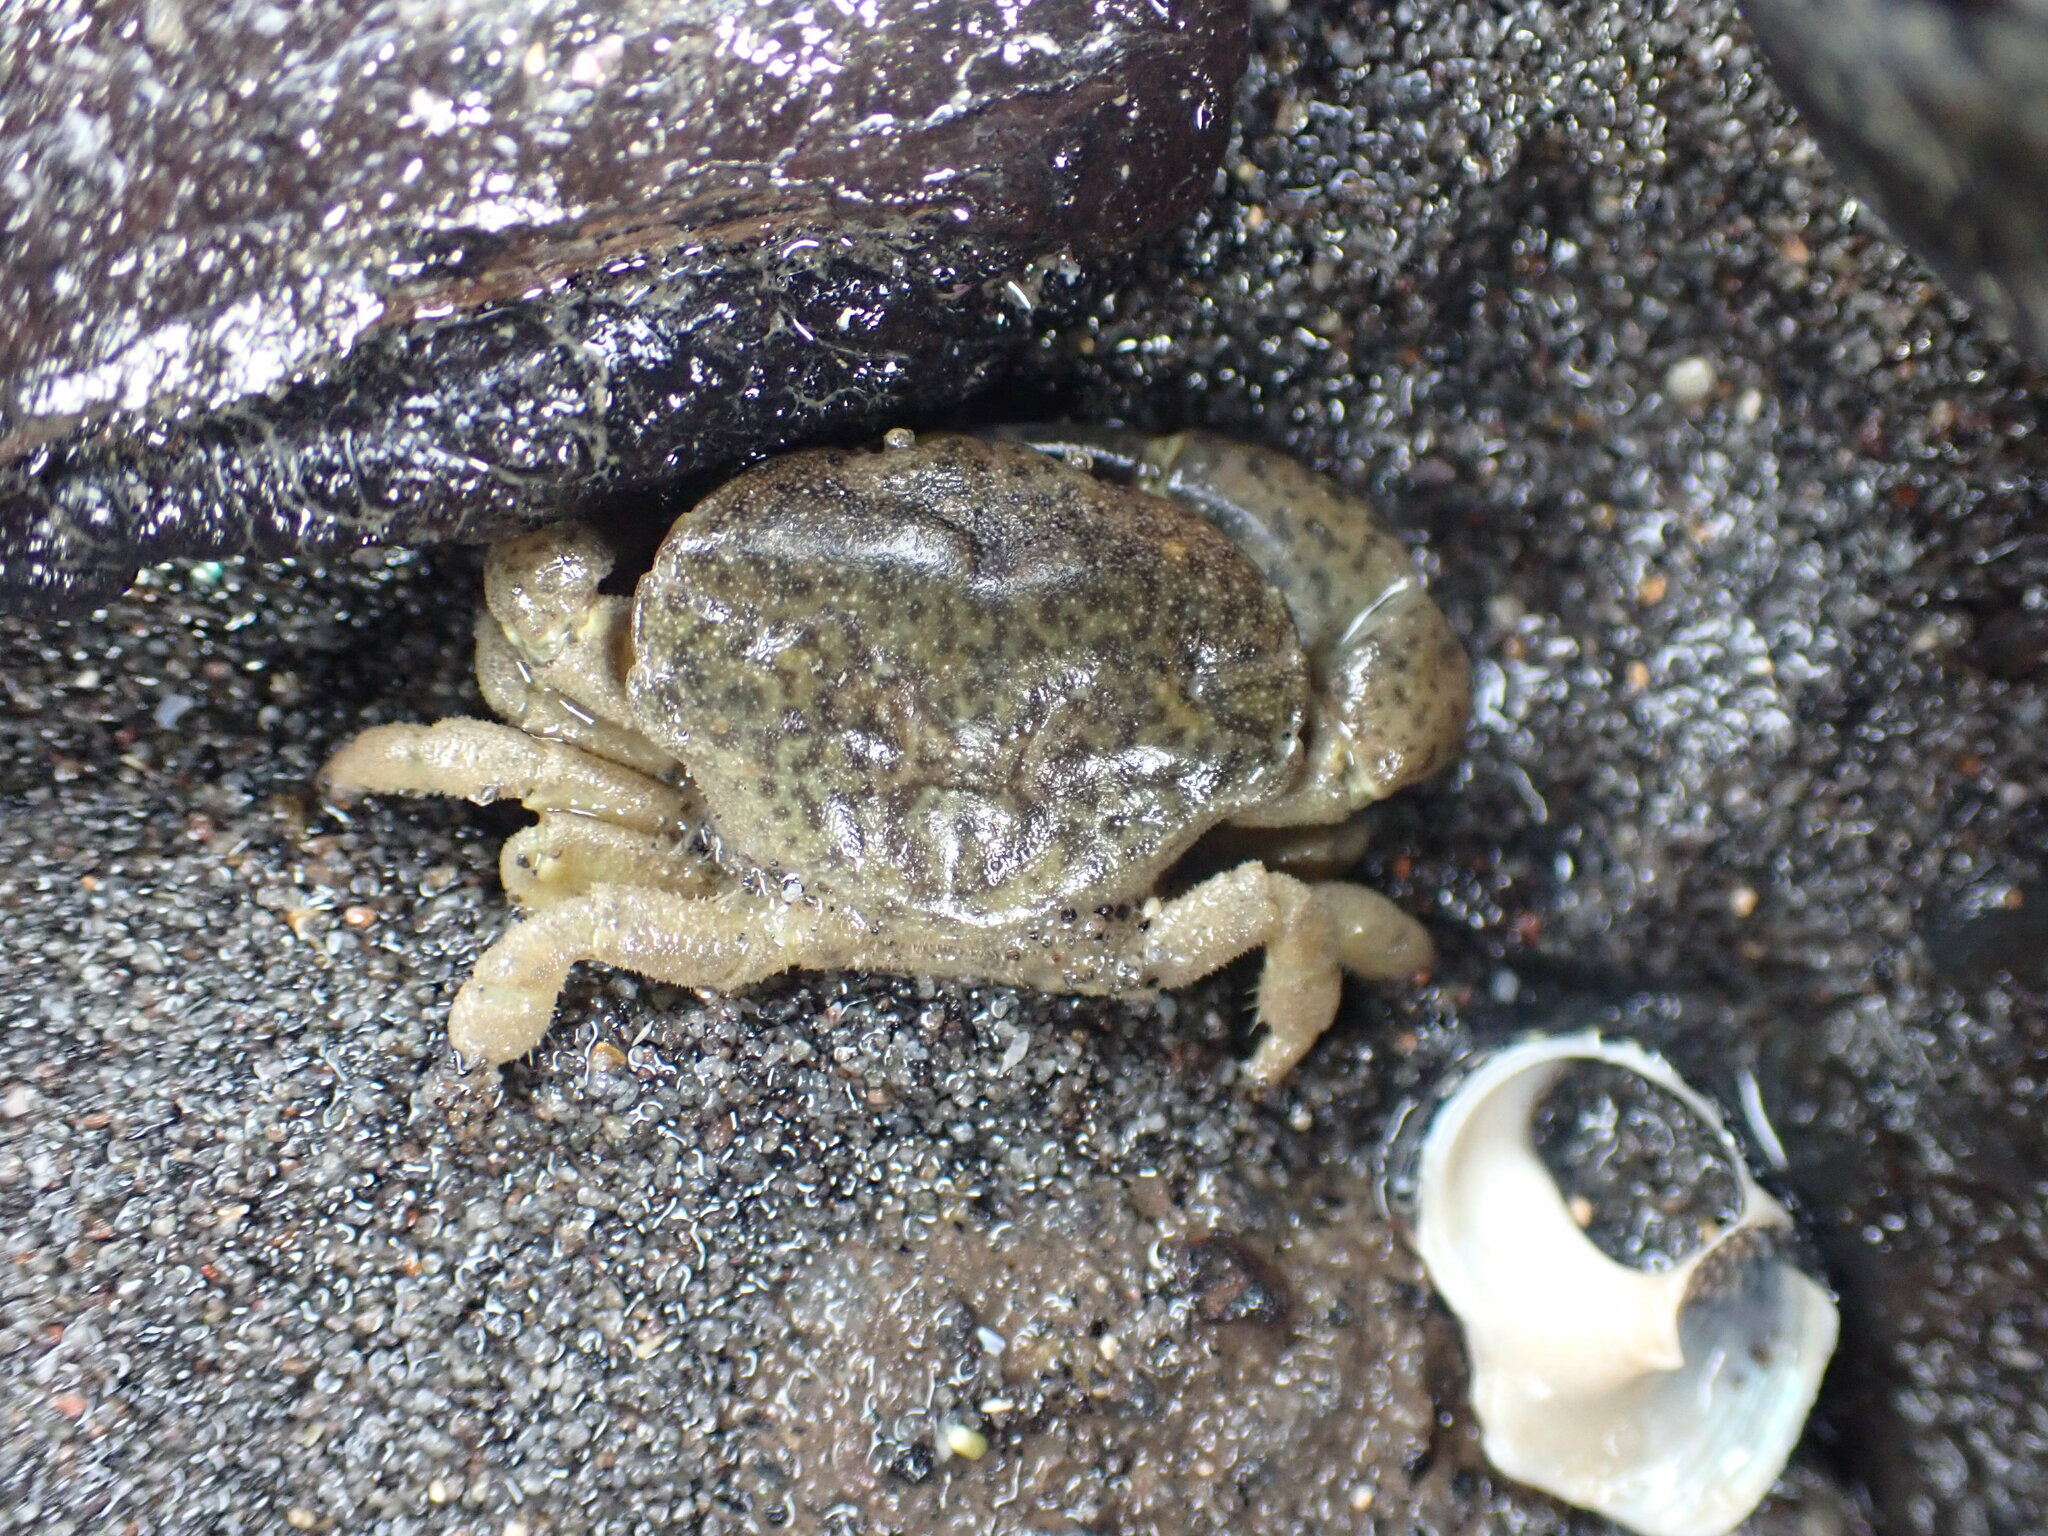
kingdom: Animalia
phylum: Arthropoda
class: Malacostraca
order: Decapoda
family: Heteroziidae
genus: Heterozius
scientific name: Heterozius rotundifrons
